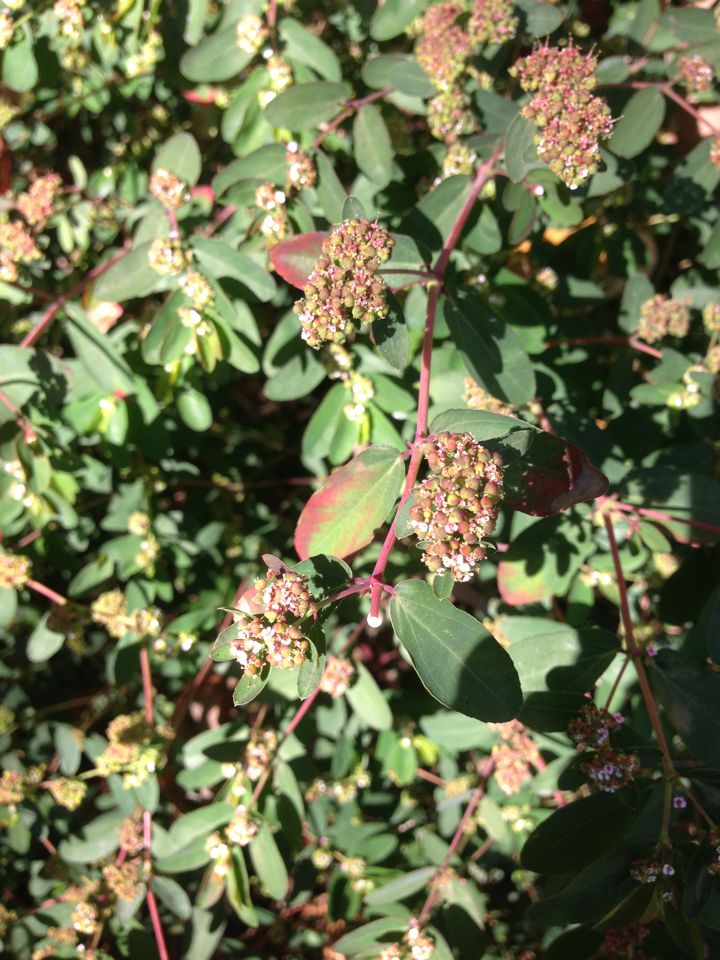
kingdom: Plantae
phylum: Tracheophyta
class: Magnoliopsida
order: Malpighiales
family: Euphorbiaceae
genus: Euphorbia
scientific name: Euphorbia hypericifolia
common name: Graceful sandmat
